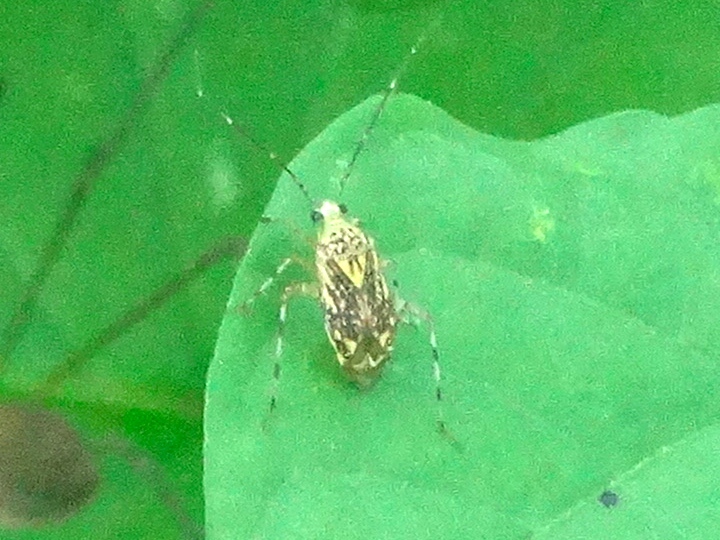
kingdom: Animalia
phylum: Arthropoda
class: Insecta
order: Hemiptera
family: Miridae
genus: Taedia
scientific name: Taedia marmorata
